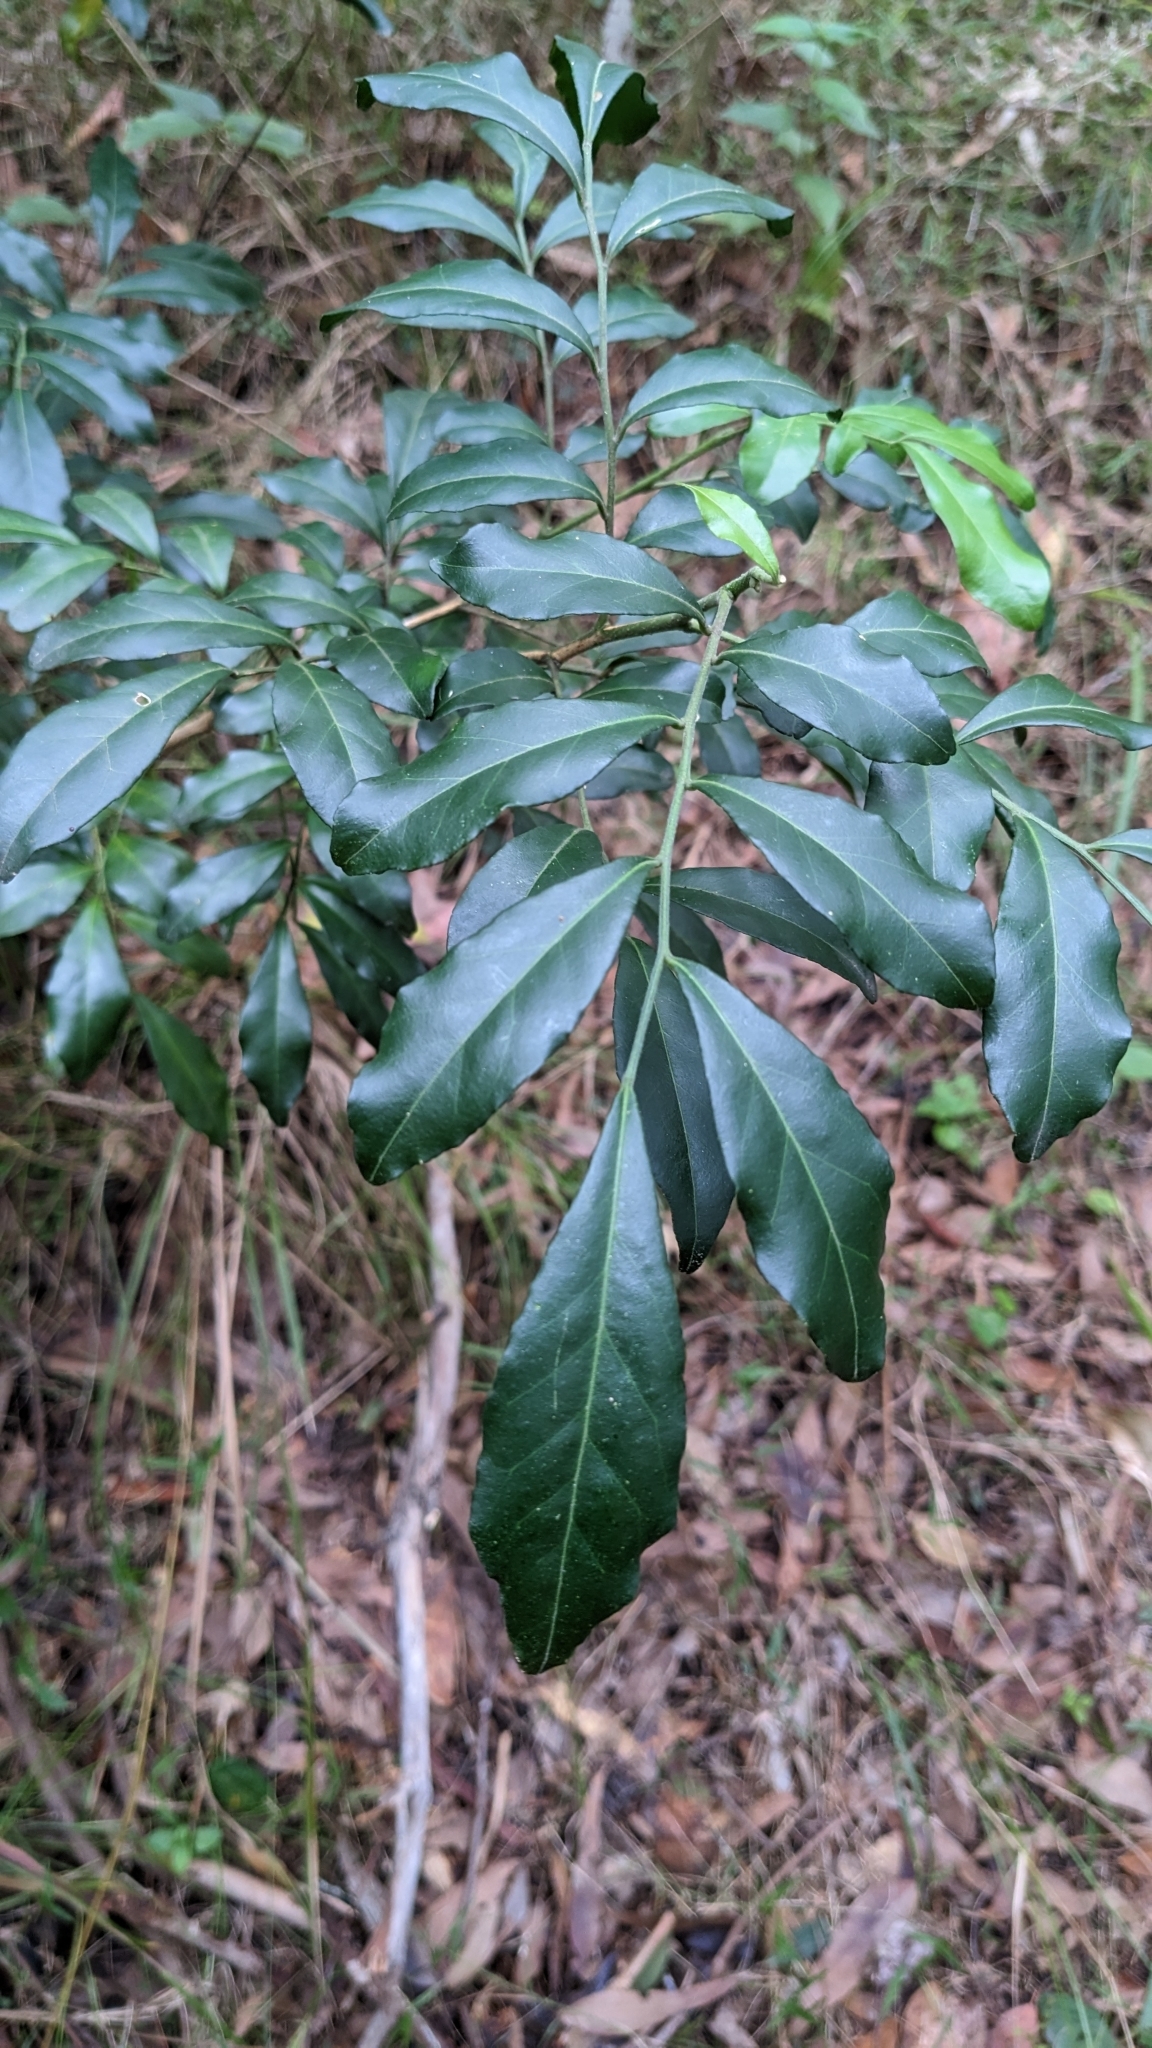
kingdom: Plantae
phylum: Tracheophyta
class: Magnoliopsida
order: Sapindales
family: Rutaceae
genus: Murraya
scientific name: Murraya paniculata
